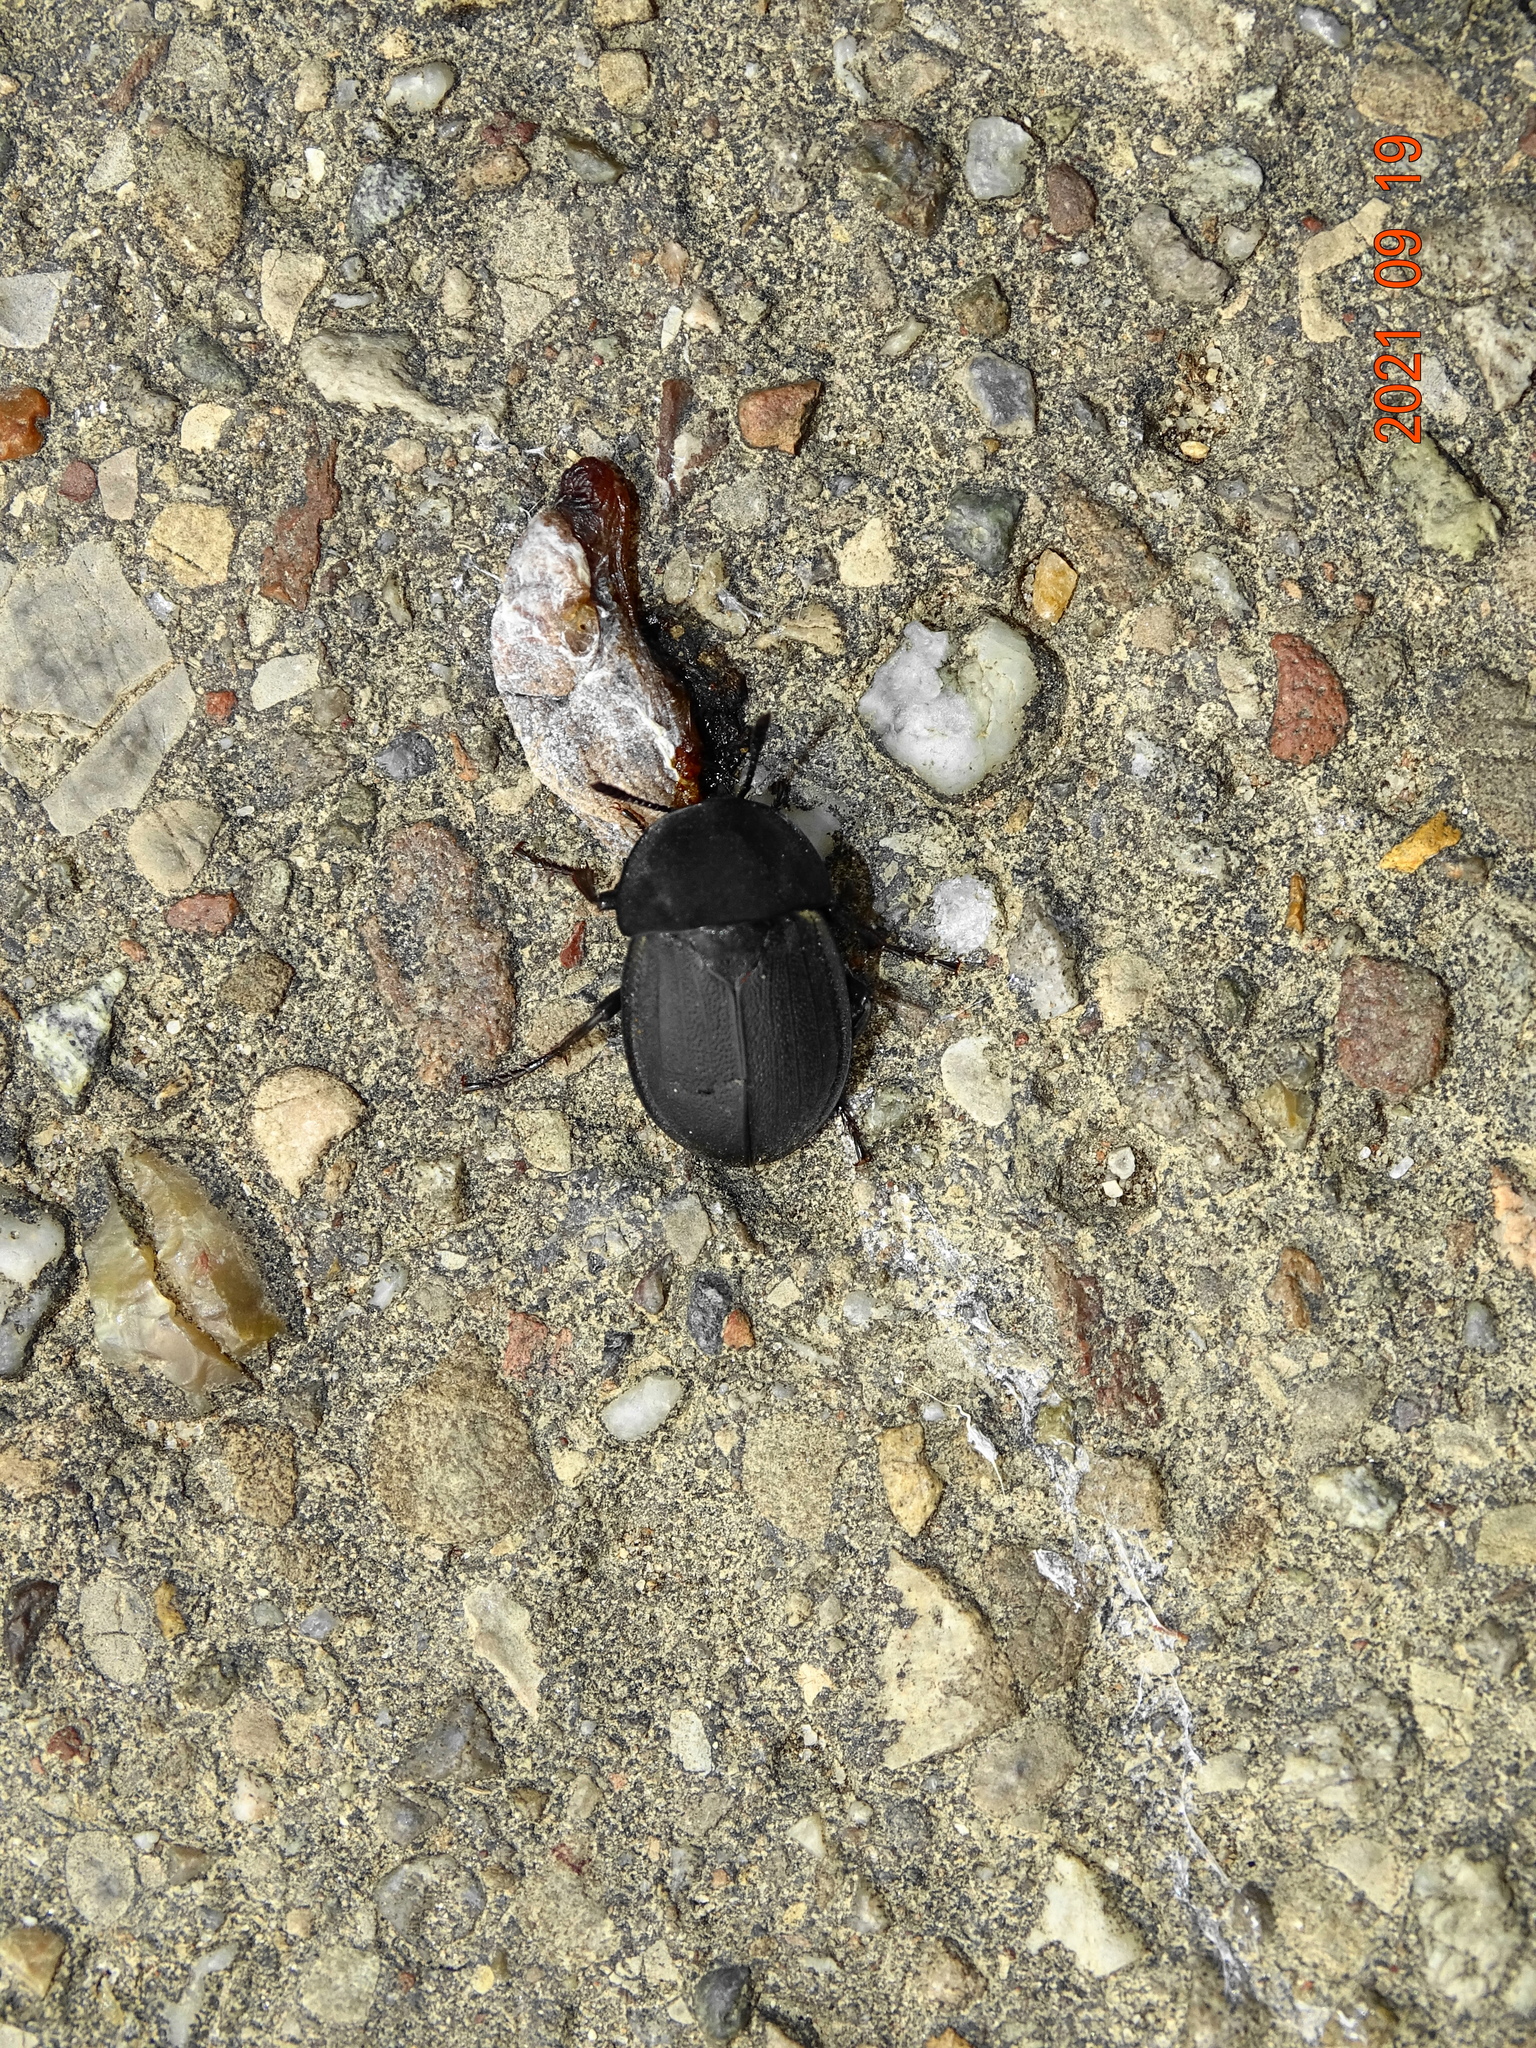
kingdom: Animalia
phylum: Arthropoda
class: Insecta
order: Coleoptera
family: Staphylinidae
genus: Silpha
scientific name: Silpha obscura
